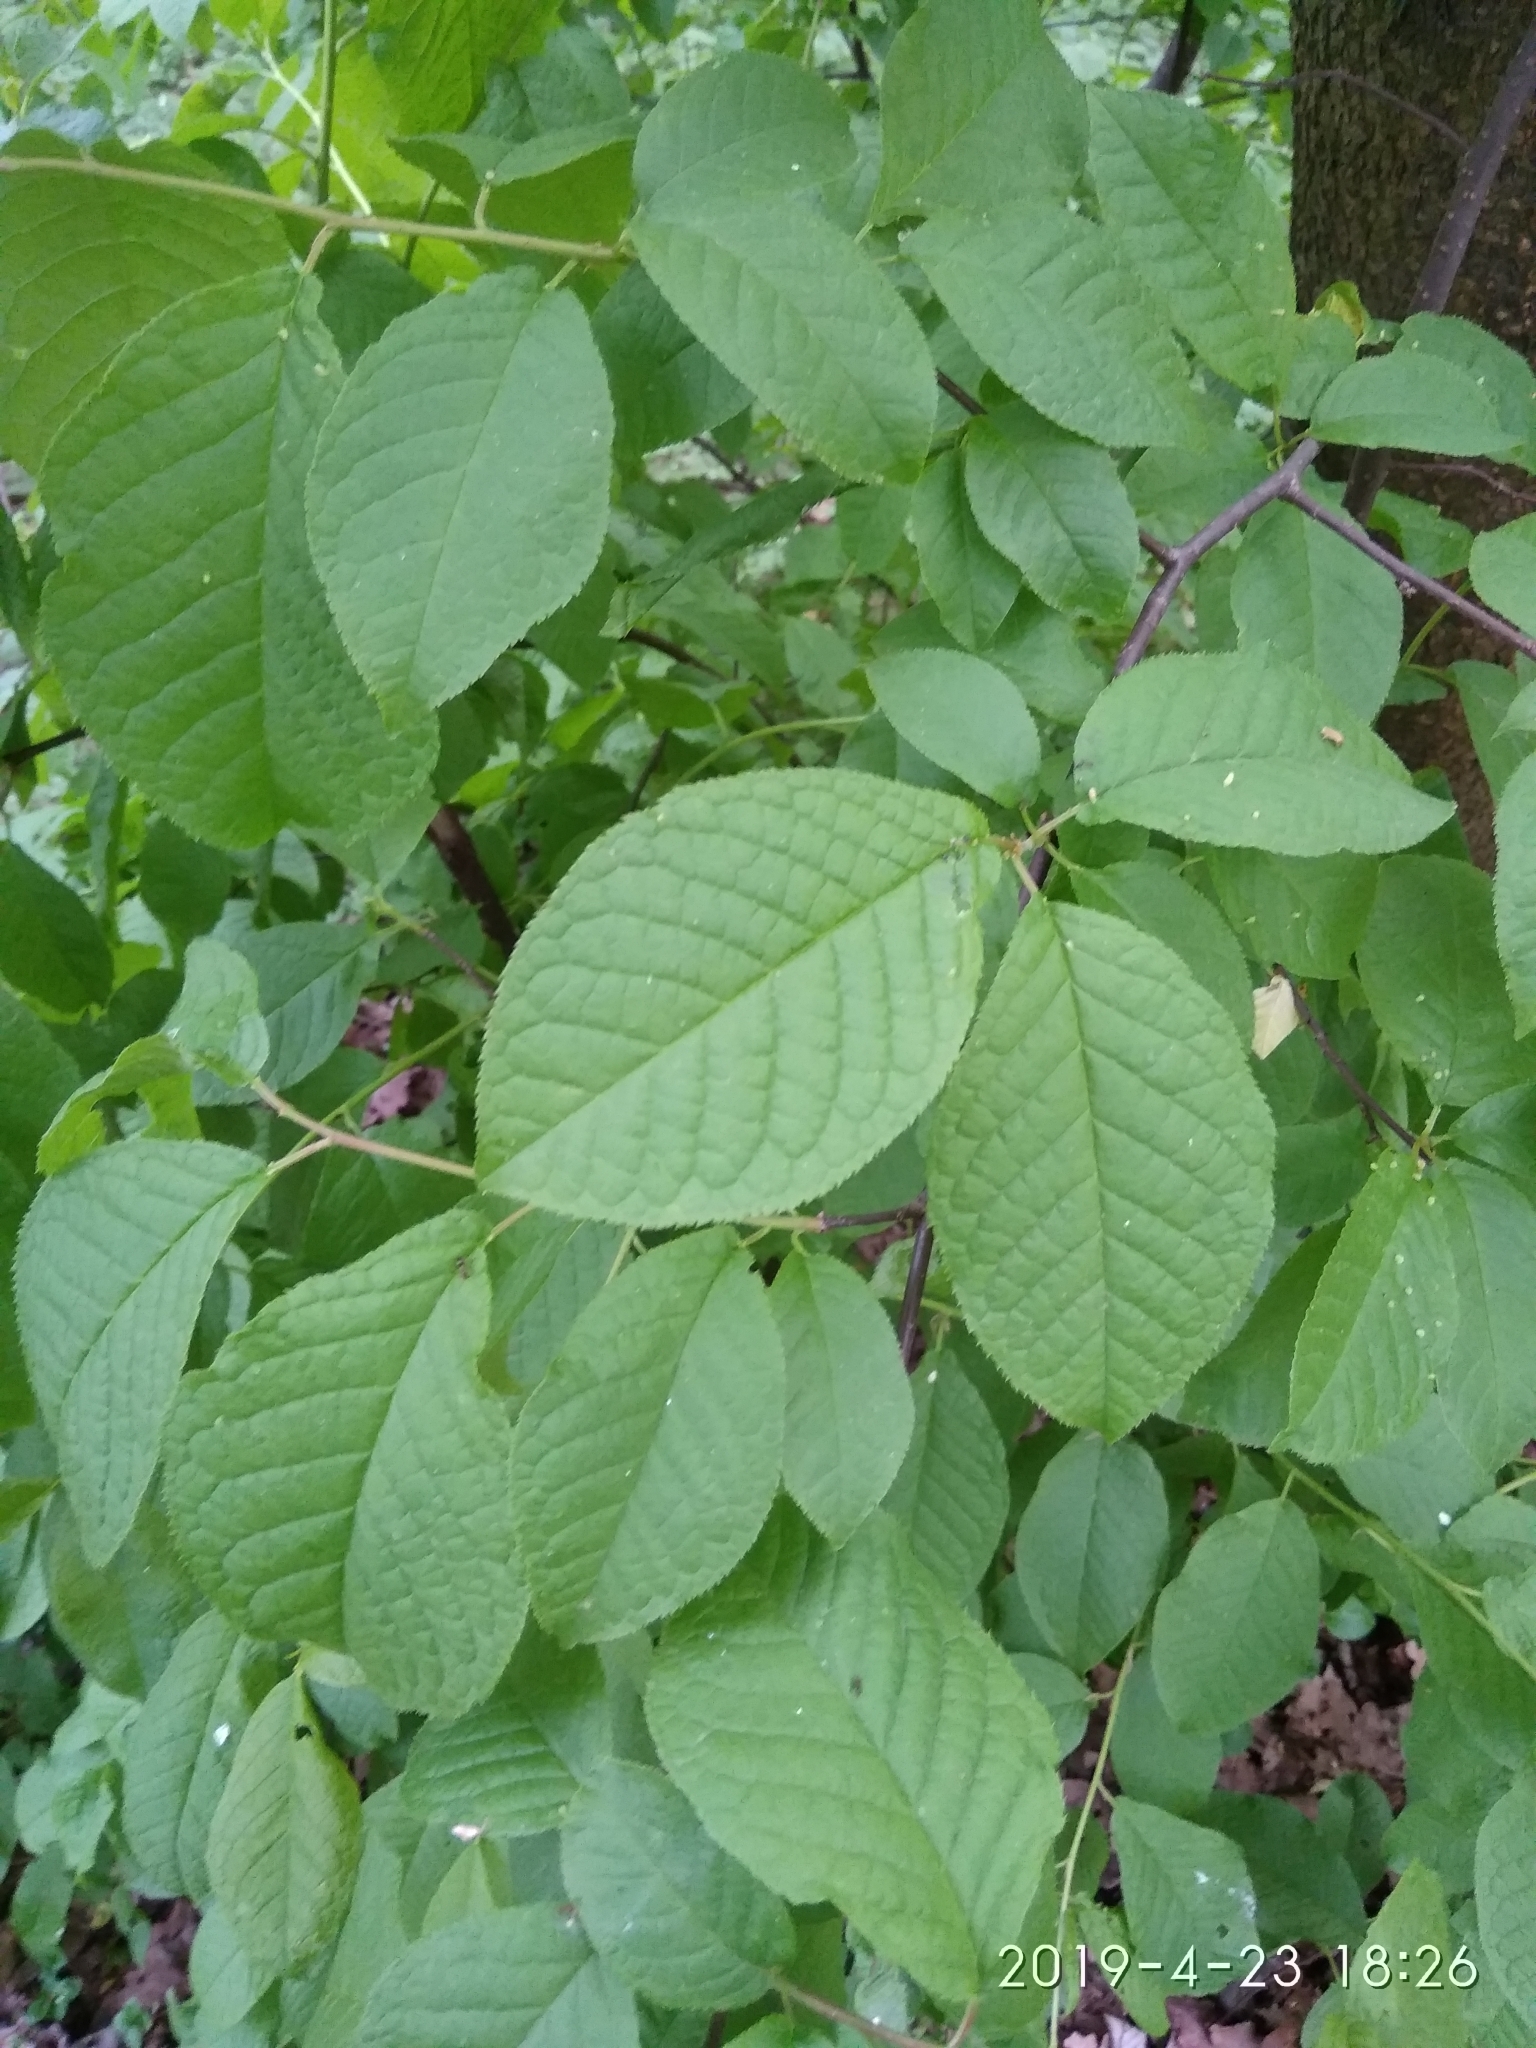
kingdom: Plantae
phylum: Tracheophyta
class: Magnoliopsida
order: Rosales
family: Rosaceae
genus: Prunus
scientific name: Prunus padus
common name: Bird cherry
